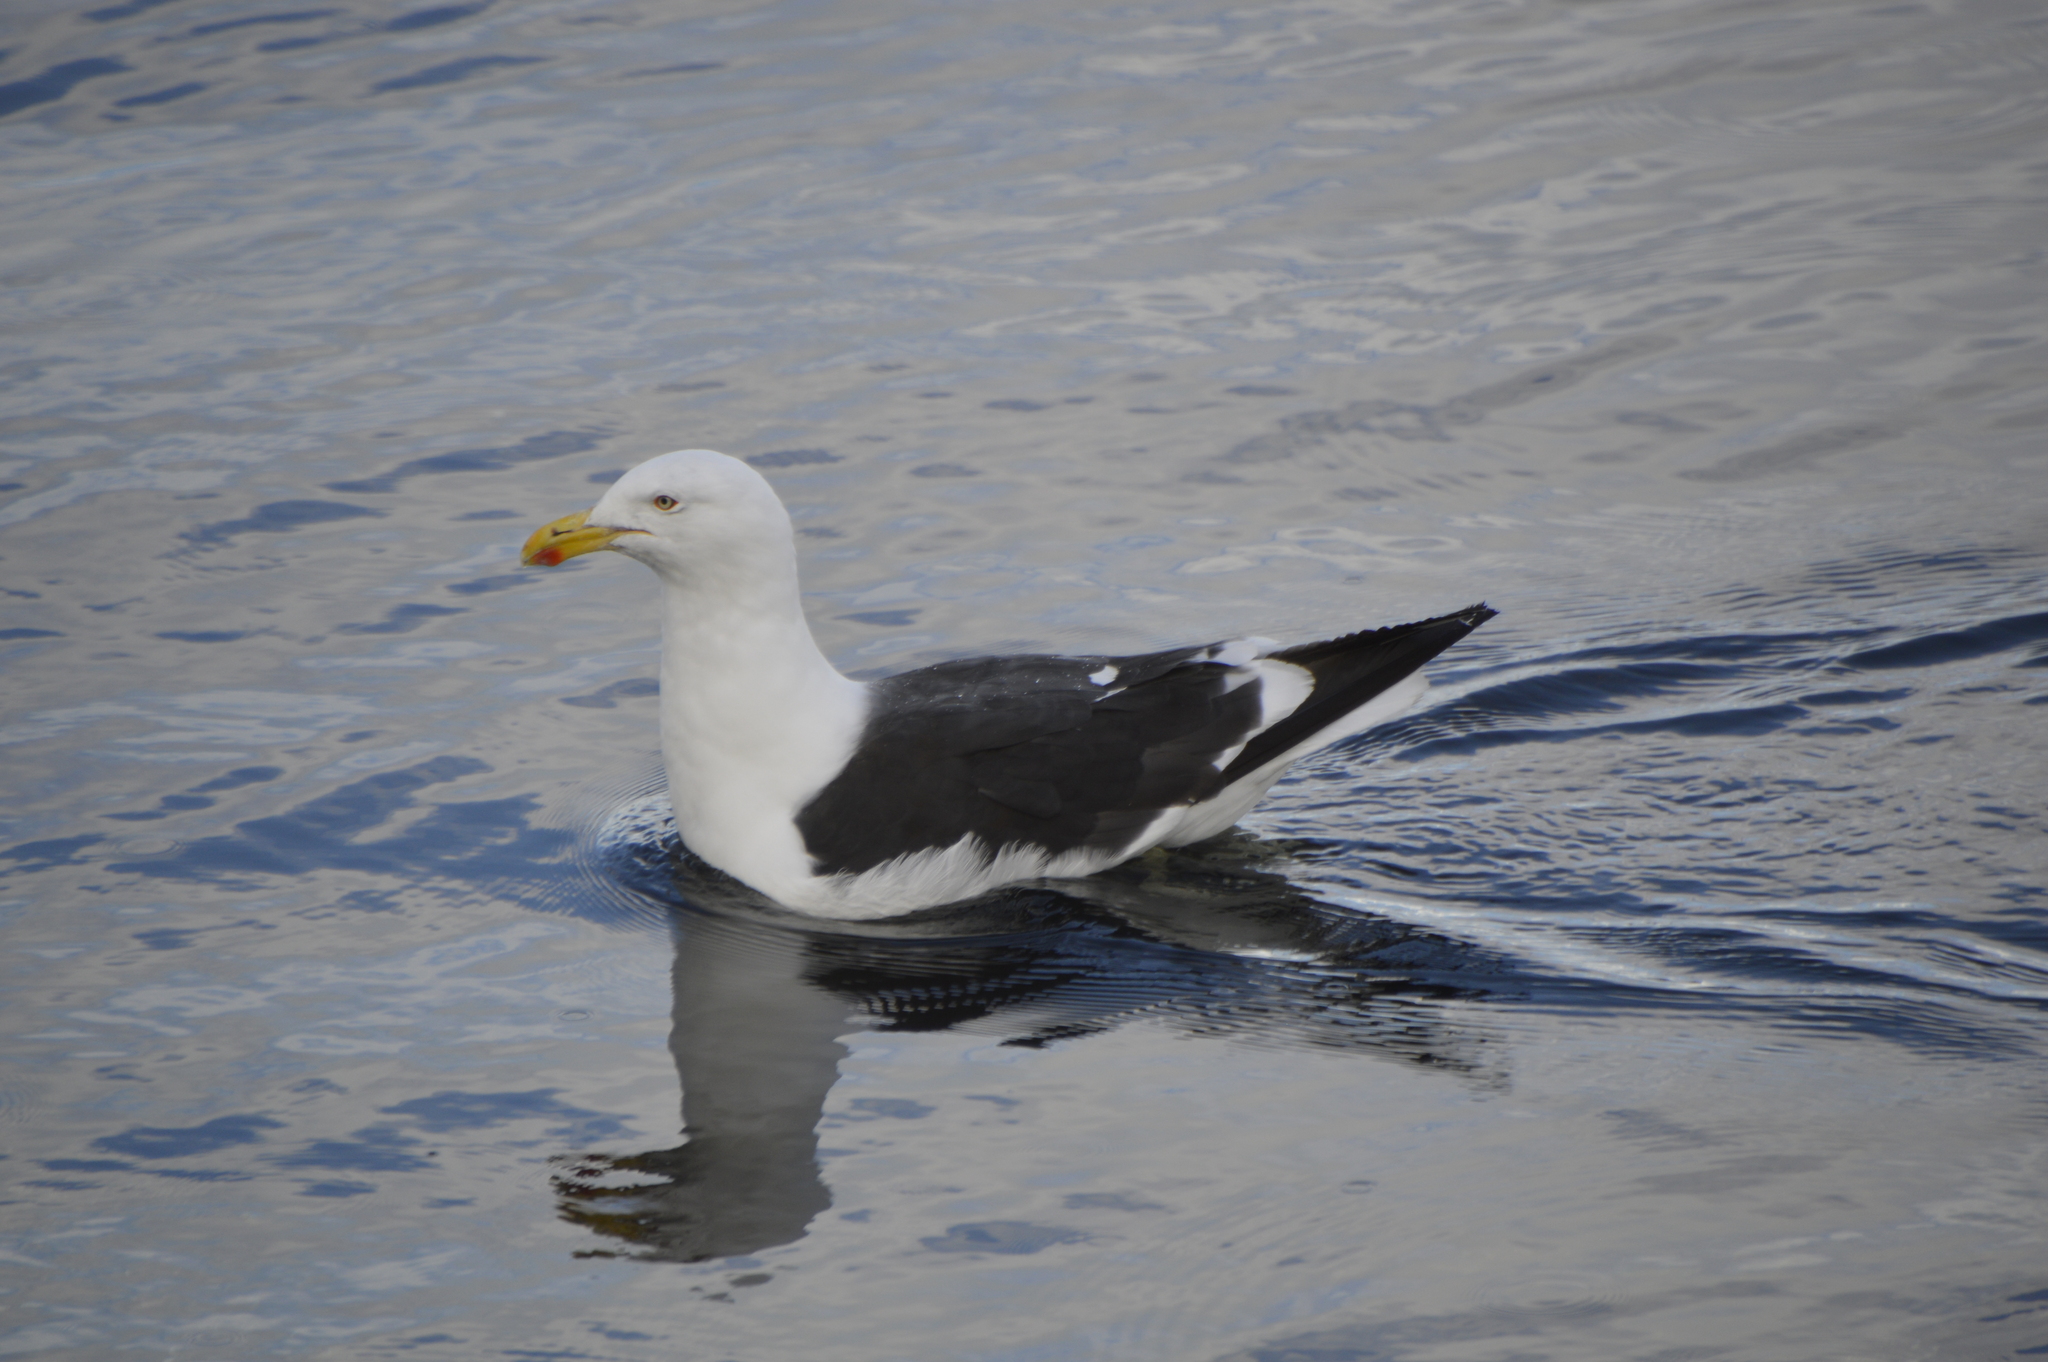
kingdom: Animalia
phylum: Chordata
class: Aves
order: Charadriiformes
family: Laridae
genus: Larus
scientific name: Larus dominicanus
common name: Kelp gull
